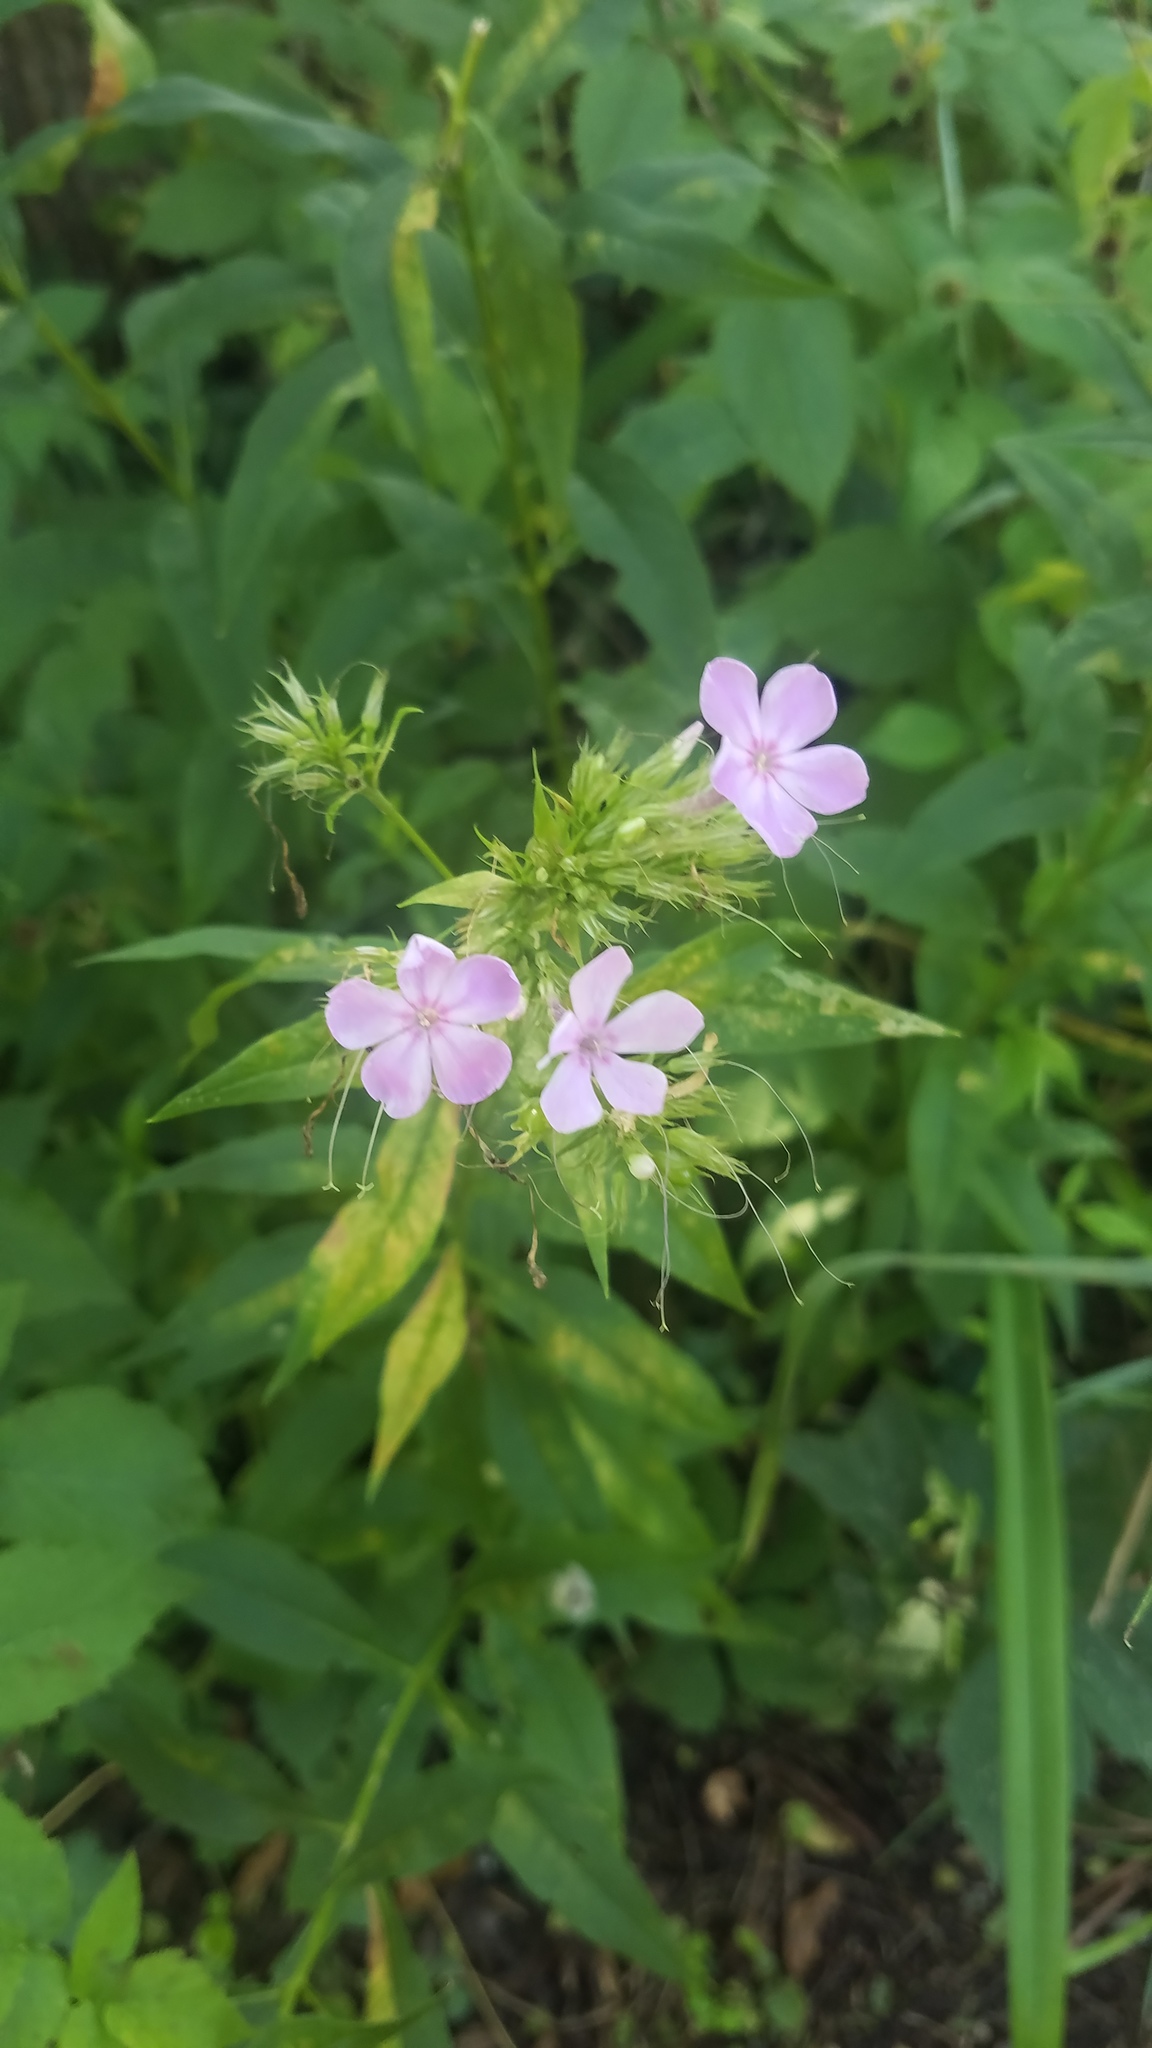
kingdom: Plantae
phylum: Tracheophyta
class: Magnoliopsida
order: Ericales
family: Polemoniaceae
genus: Phlox
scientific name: Phlox paniculata
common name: Fall phlox
